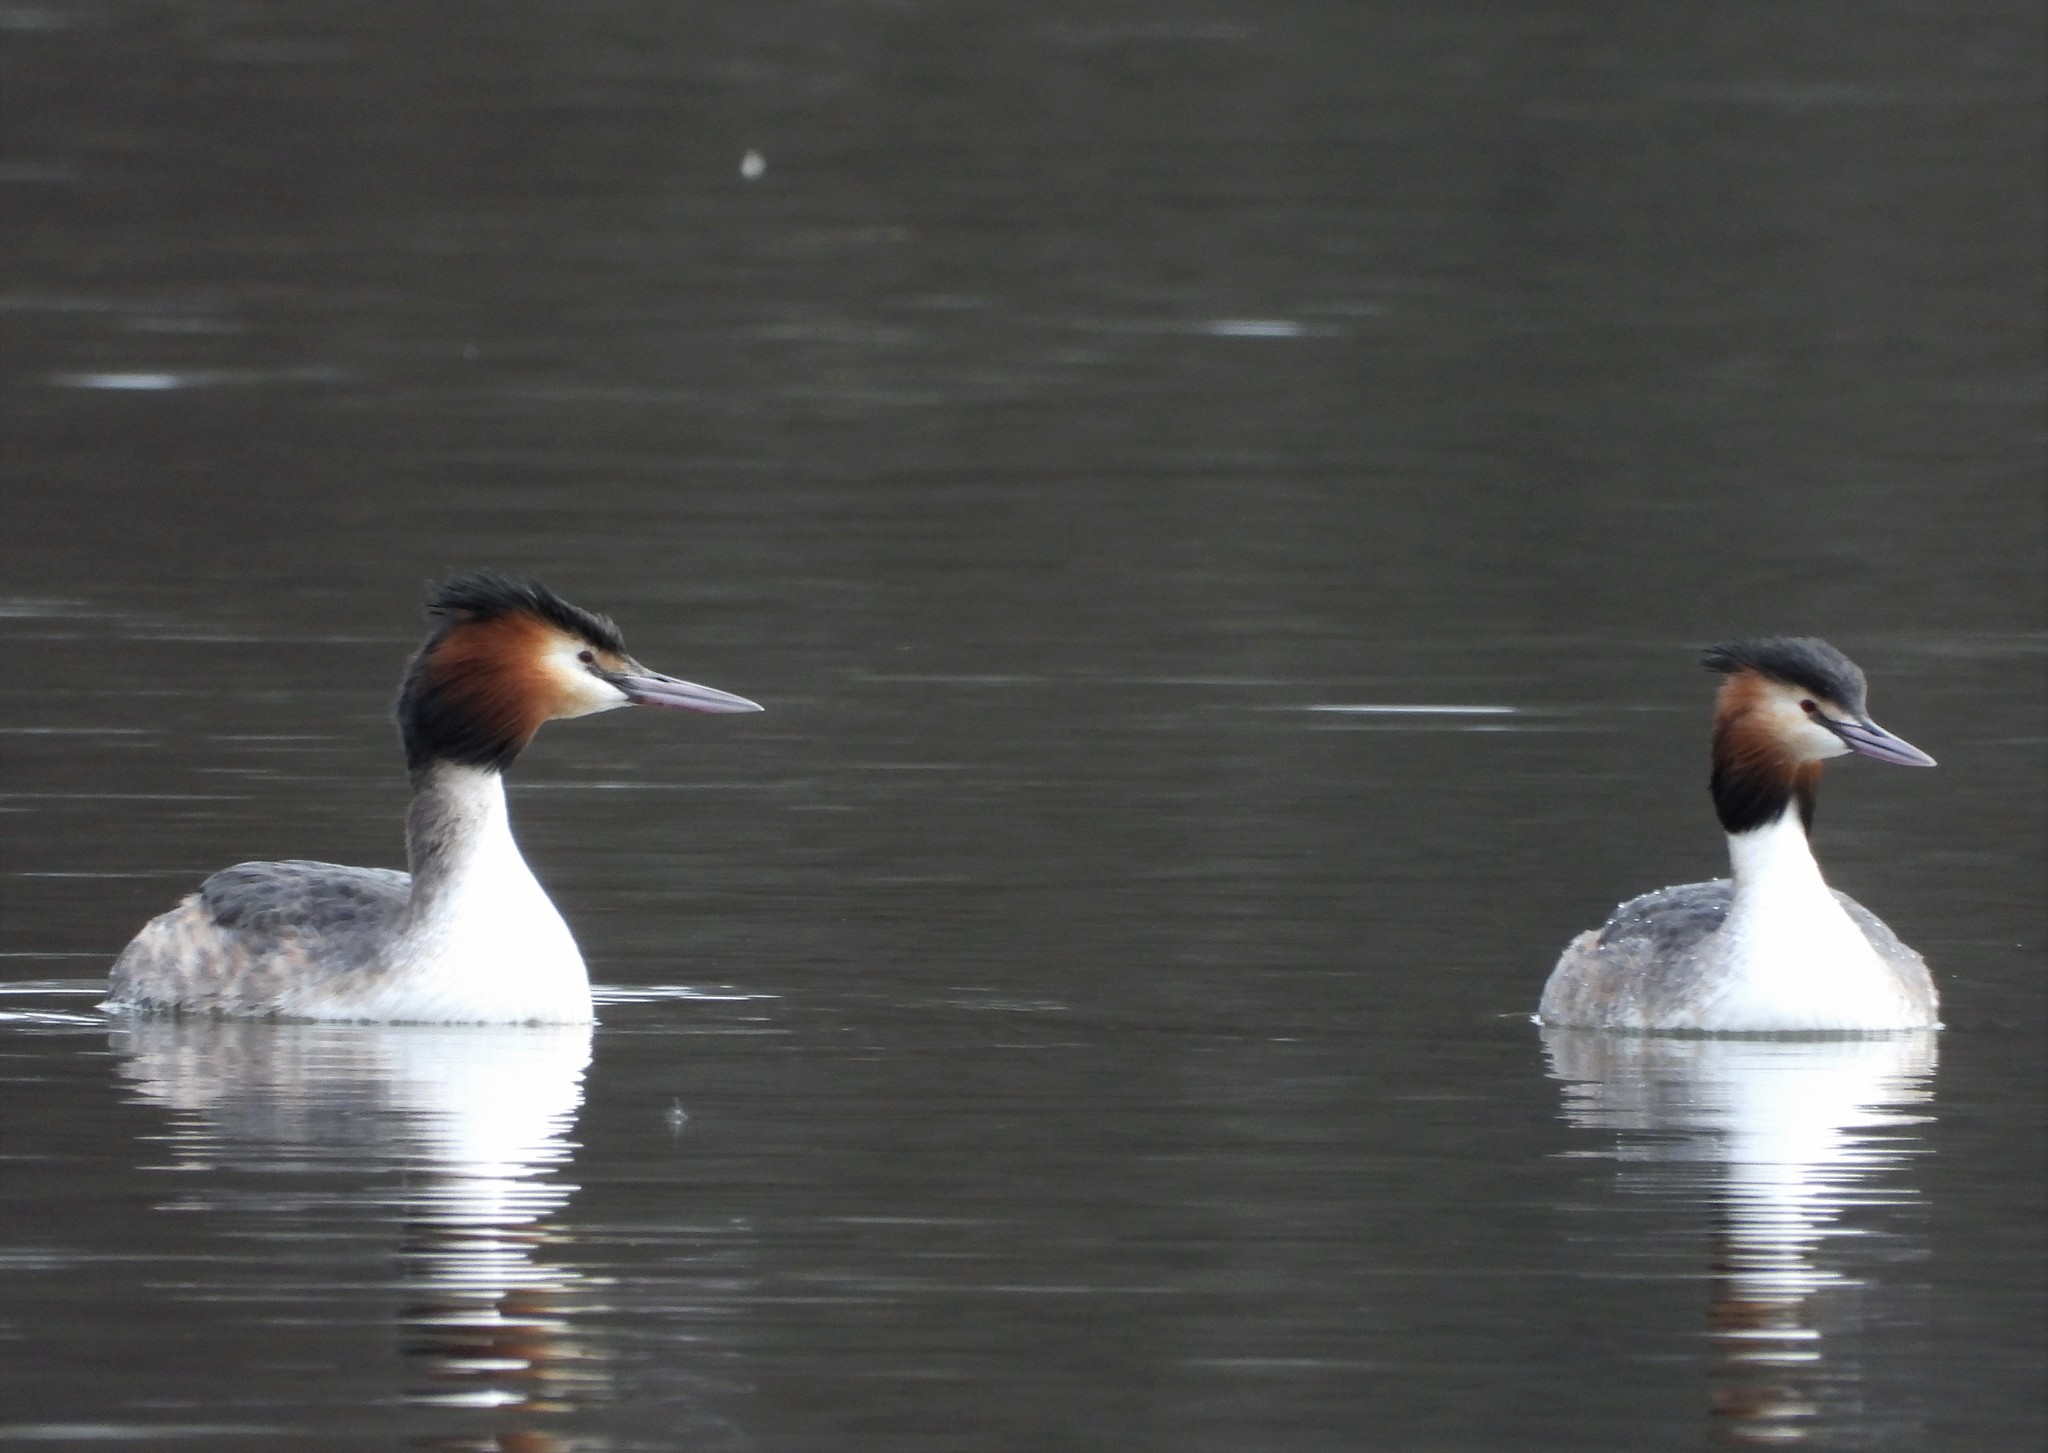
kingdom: Animalia
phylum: Chordata
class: Aves
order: Podicipediformes
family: Podicipedidae
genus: Podiceps
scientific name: Podiceps cristatus
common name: Great crested grebe
